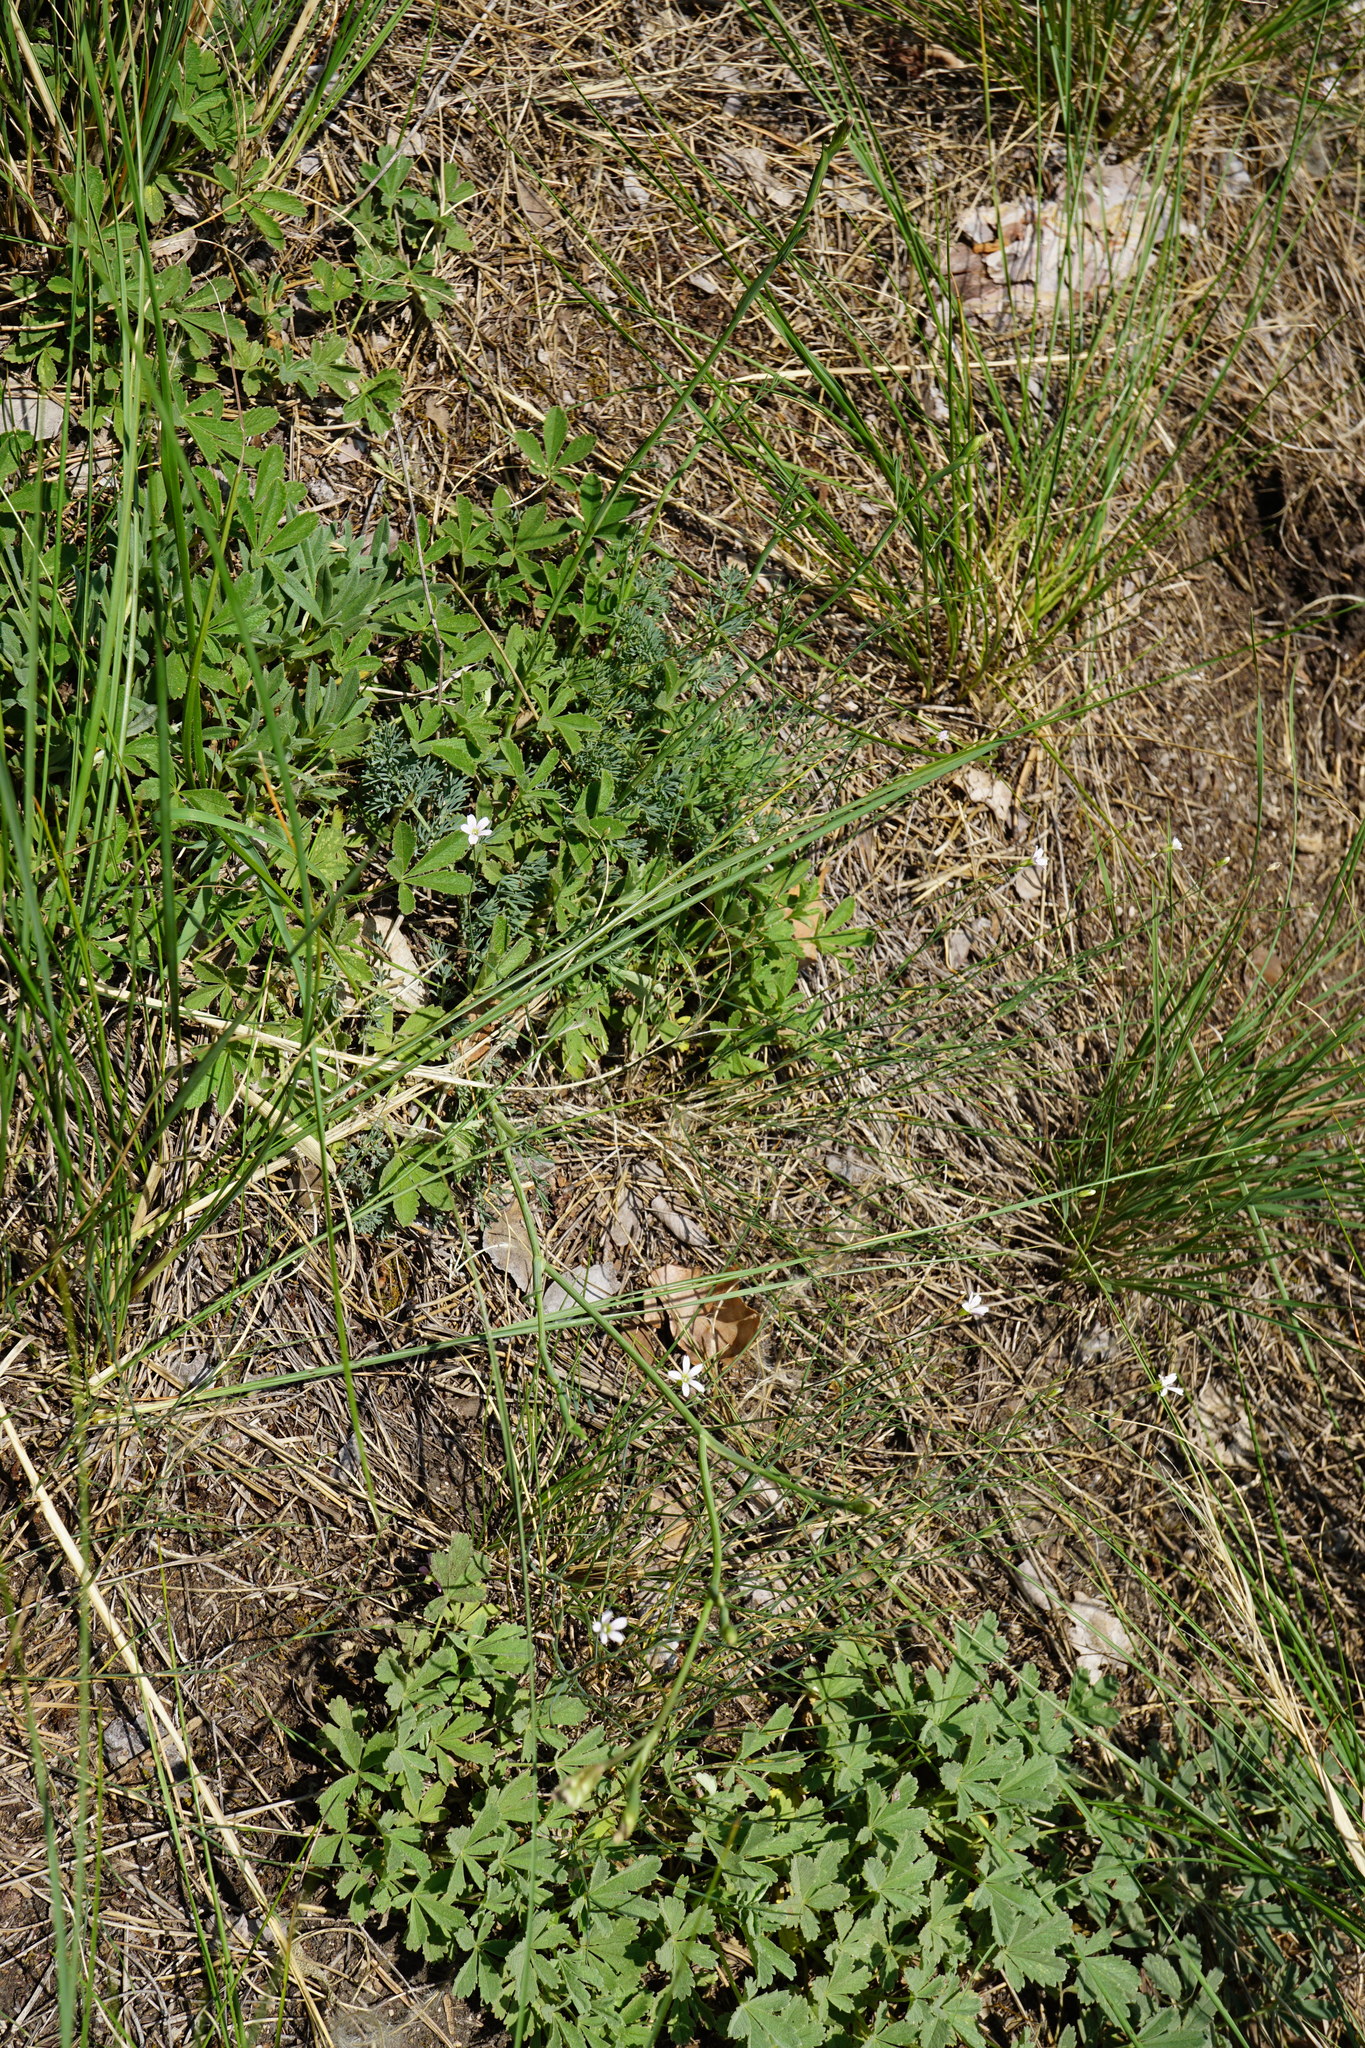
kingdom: Plantae
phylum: Tracheophyta
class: Magnoliopsida
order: Apiales
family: Apiaceae
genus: Hippomarathrum
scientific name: Hippomarathrum
